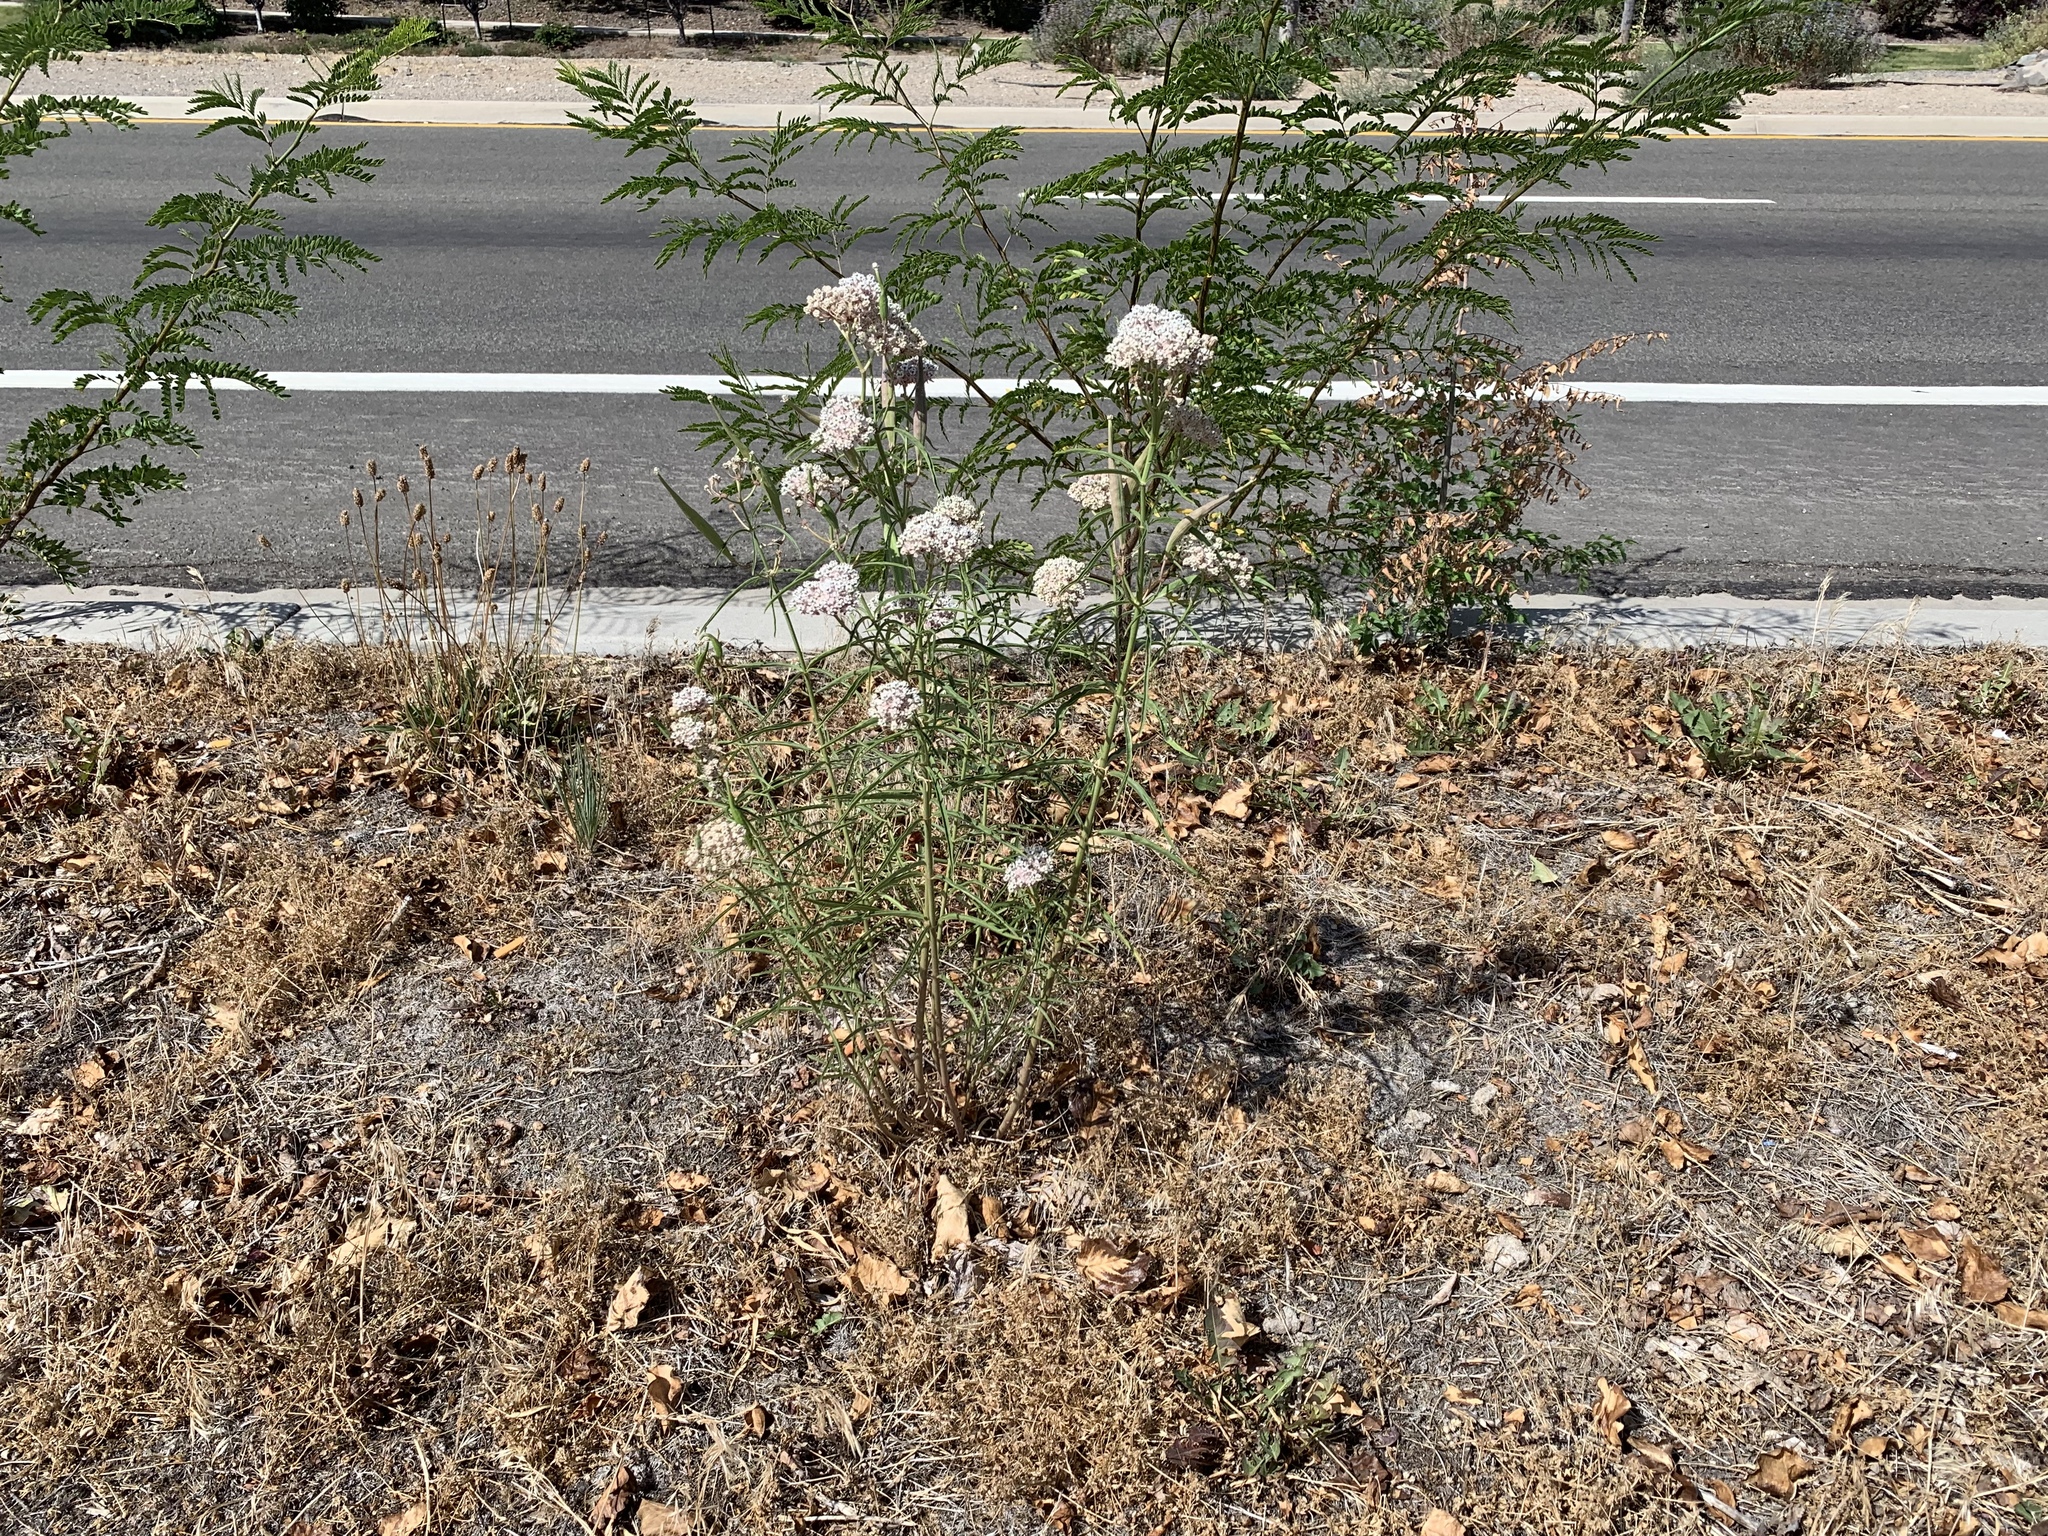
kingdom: Plantae
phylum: Tracheophyta
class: Magnoliopsida
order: Gentianales
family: Apocynaceae
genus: Asclepias
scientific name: Asclepias fascicularis
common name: Mexican milkweed
